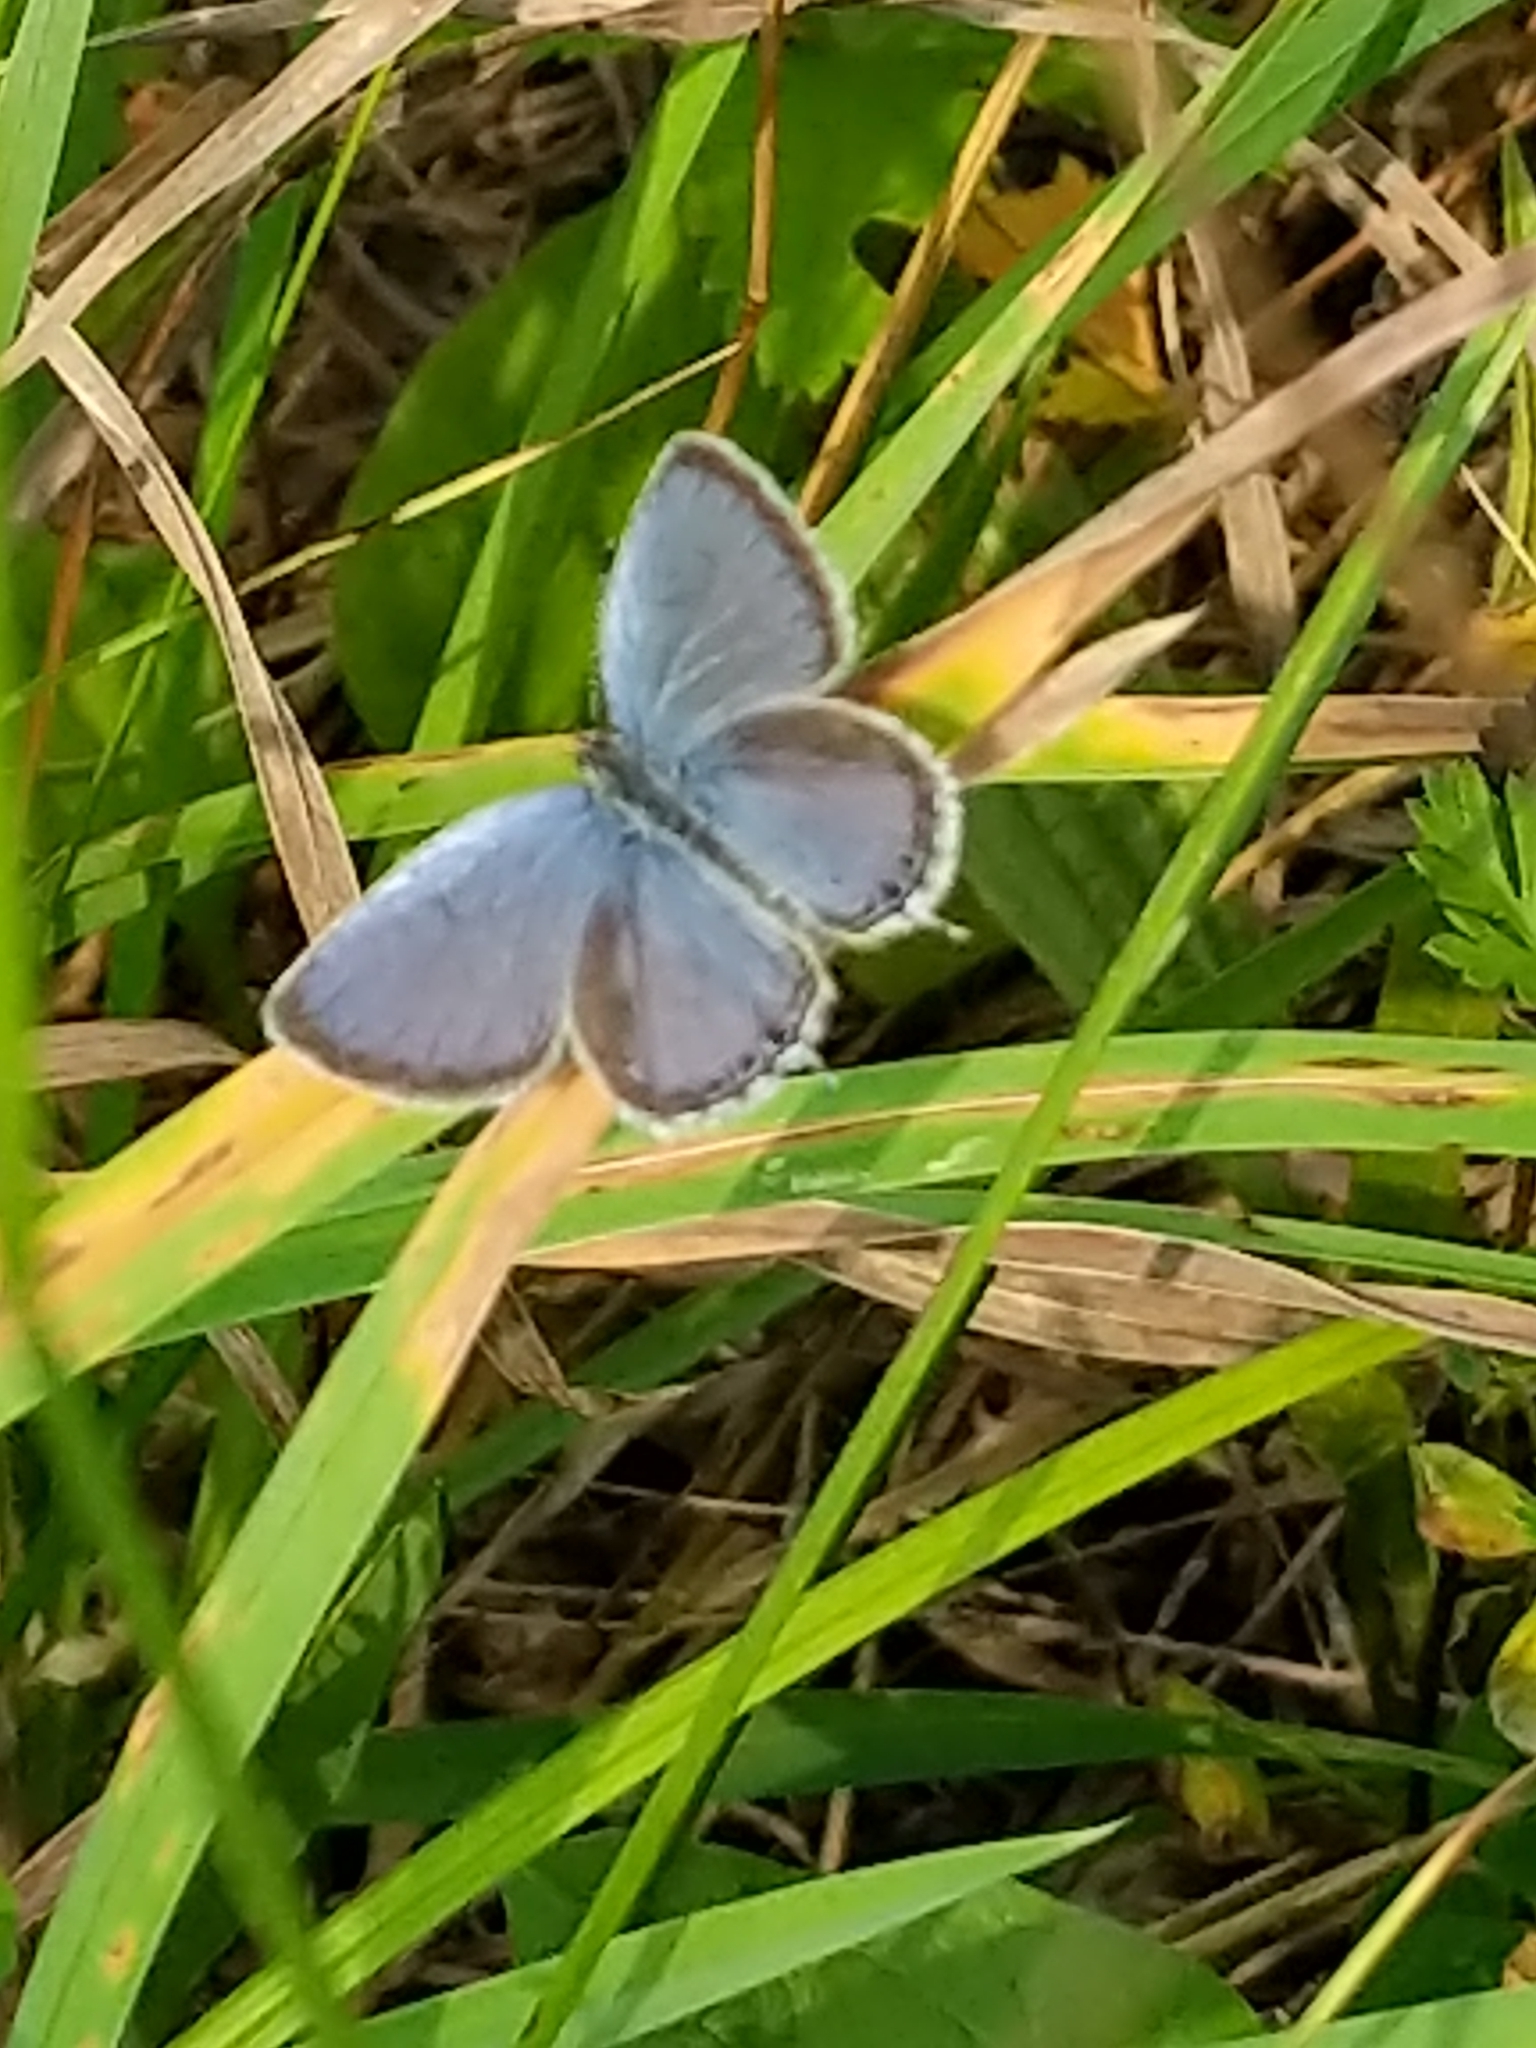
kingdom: Animalia
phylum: Arthropoda
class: Insecta
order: Lepidoptera
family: Lycaenidae
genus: Elkalyce
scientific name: Elkalyce comyntas
